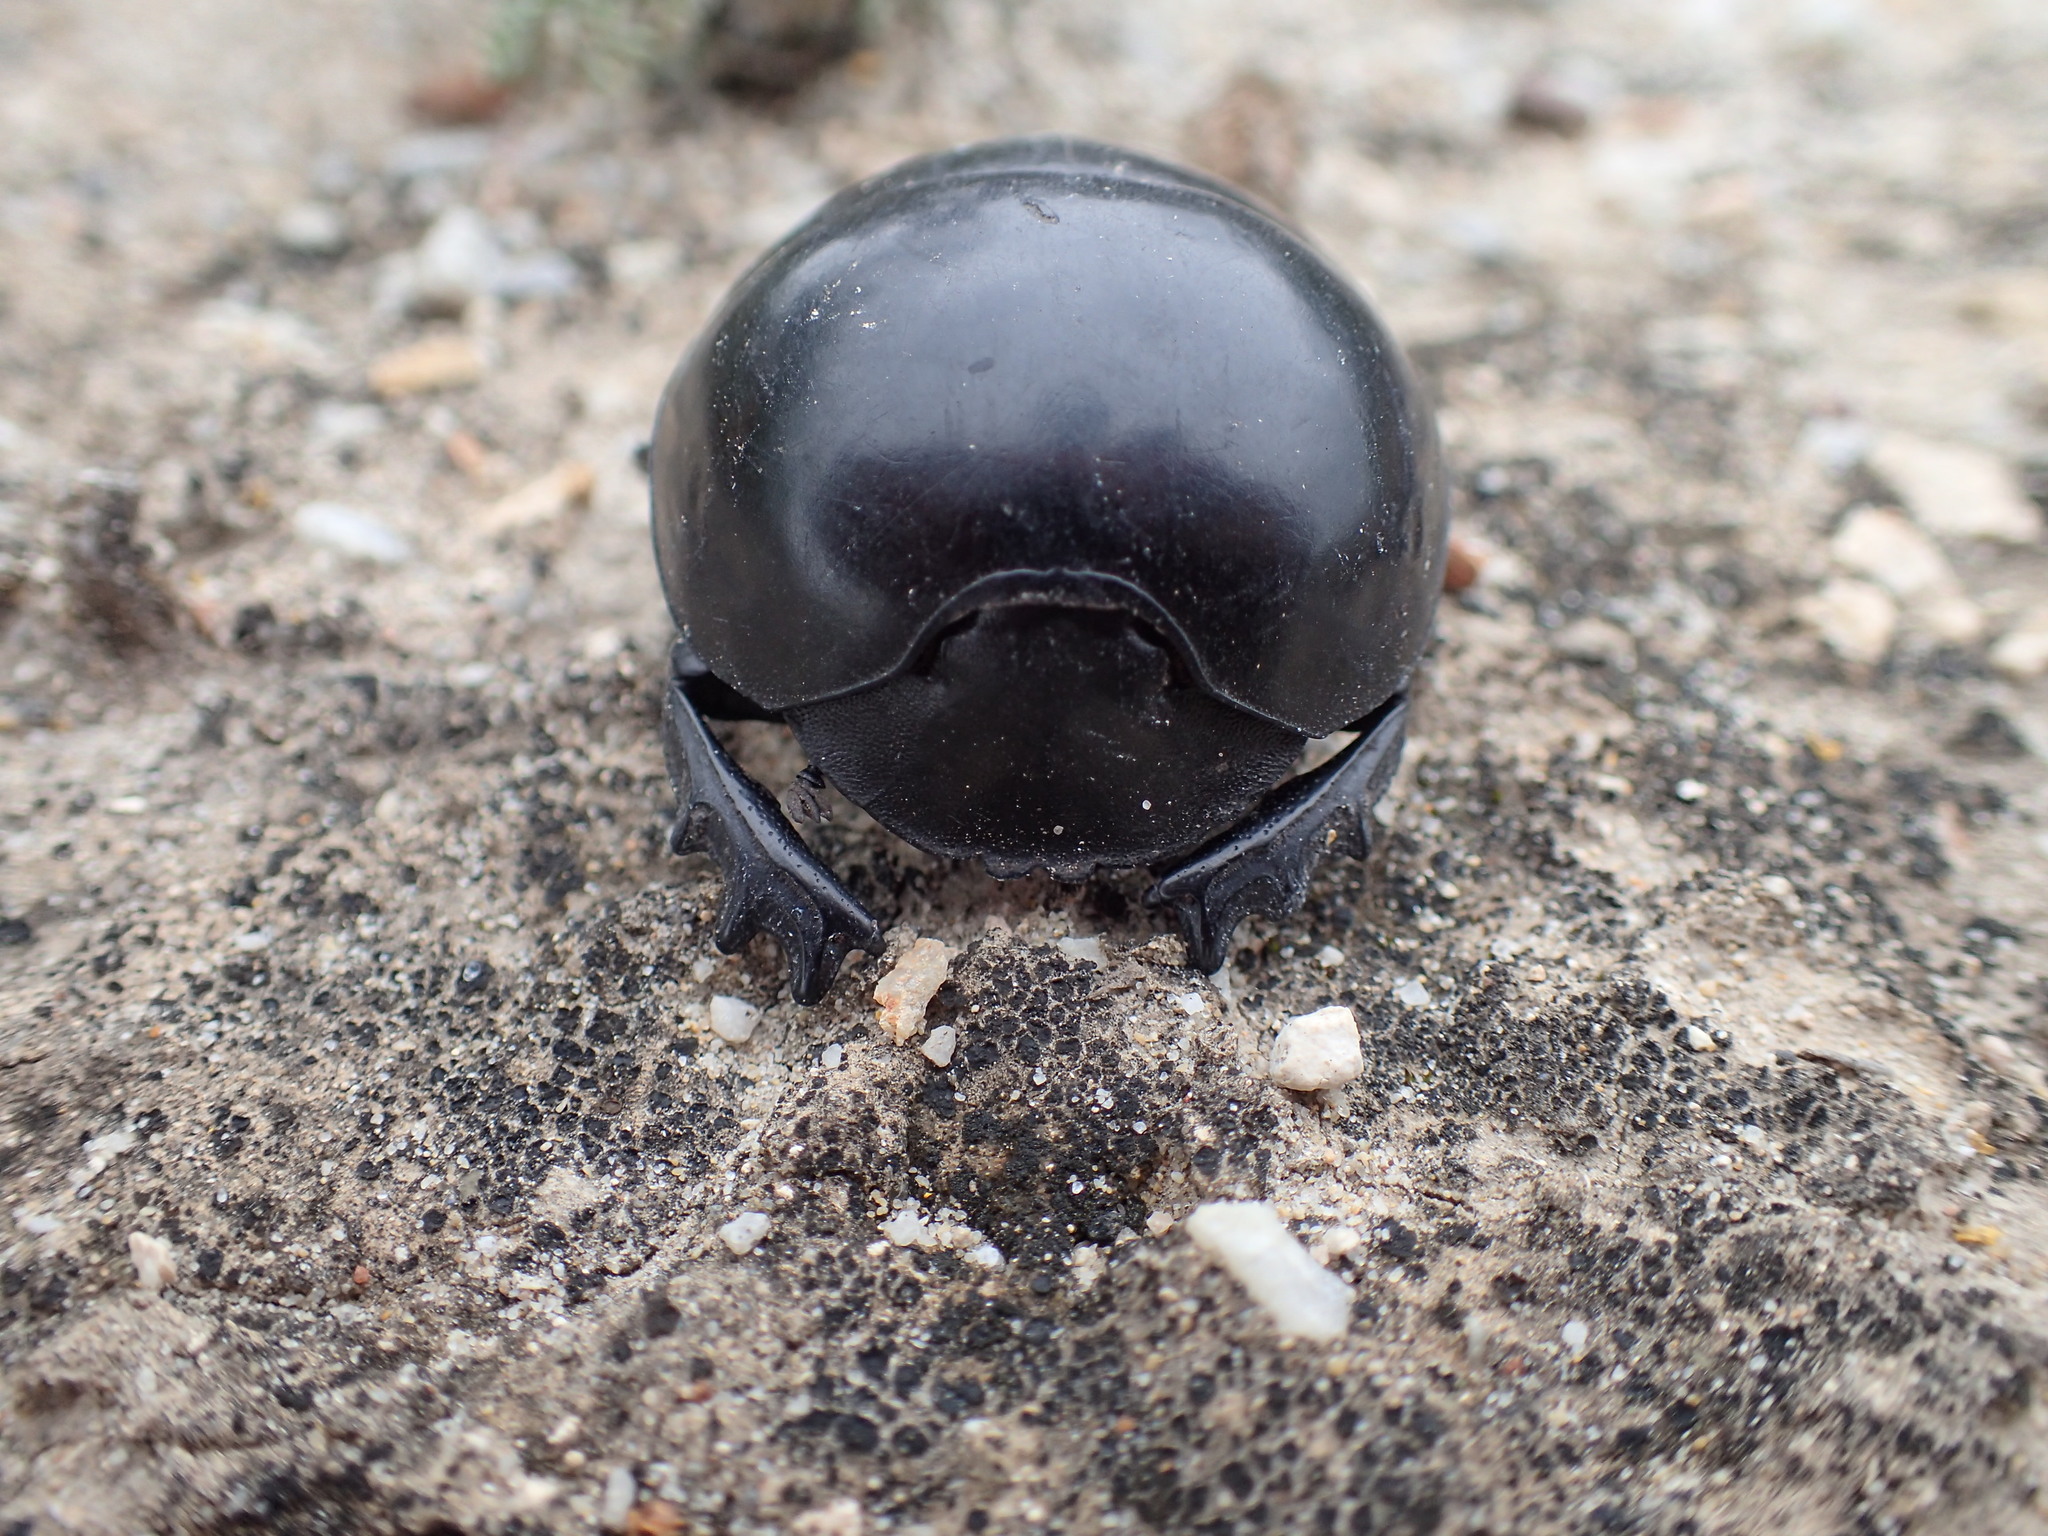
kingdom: Animalia
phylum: Arthropoda
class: Insecta
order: Coleoptera
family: Scarabaeidae
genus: Circellium
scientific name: Circellium bacchus
